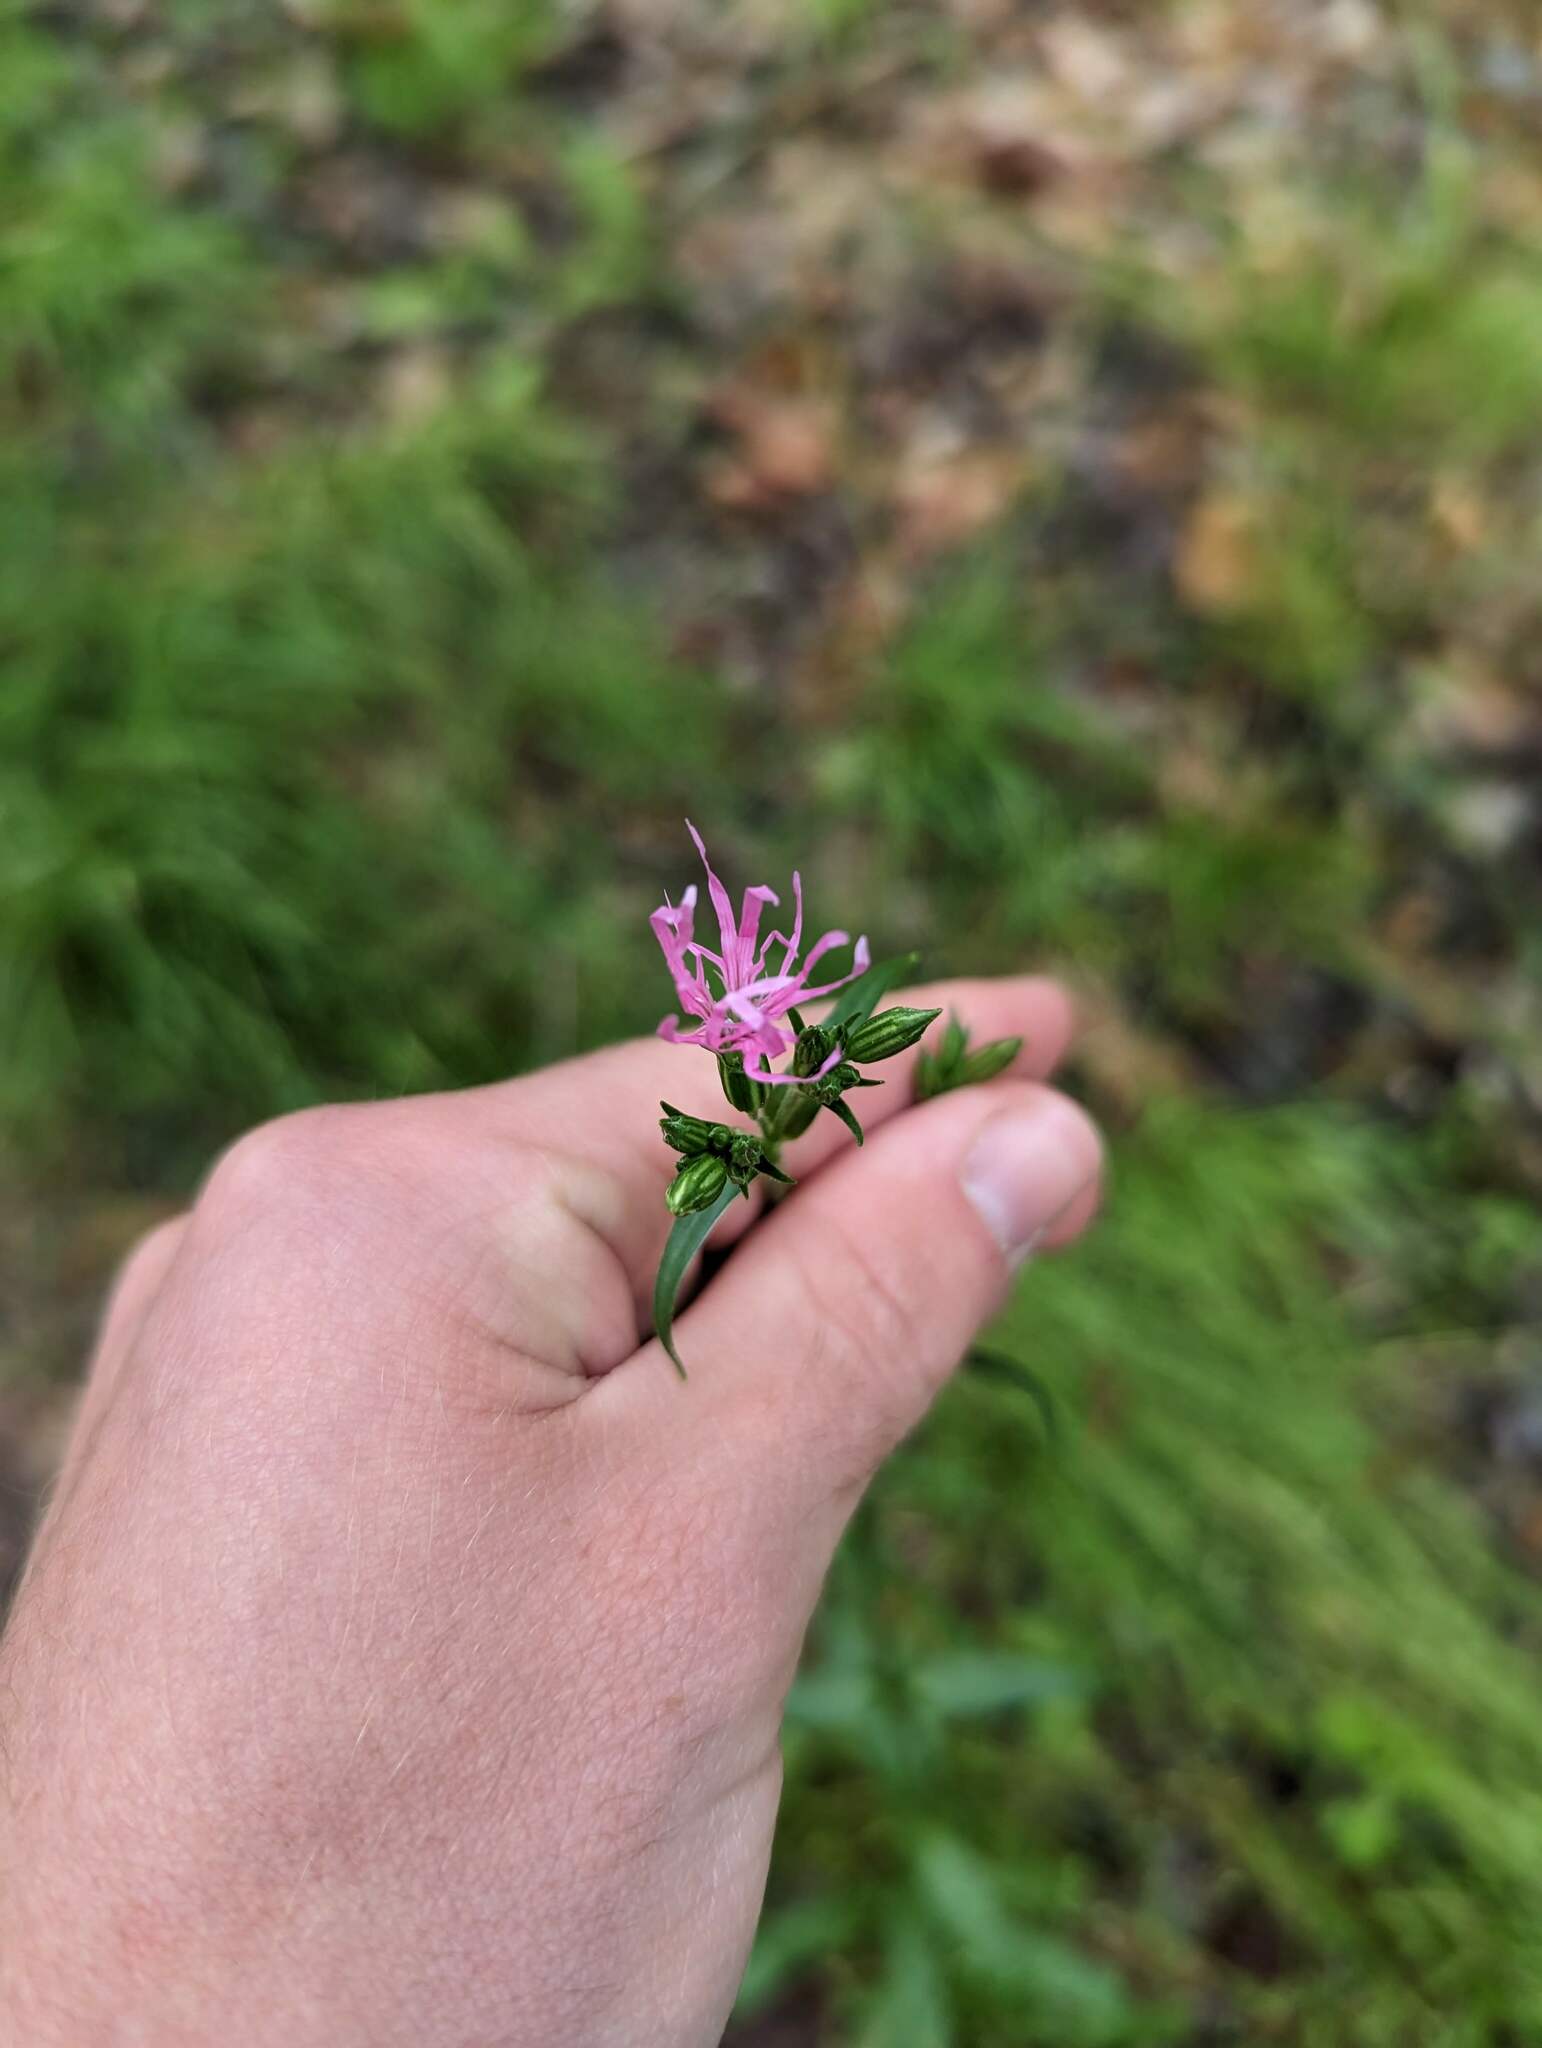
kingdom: Plantae
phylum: Tracheophyta
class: Magnoliopsida
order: Caryophyllales
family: Caryophyllaceae
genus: Silene
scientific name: Silene flos-cuculi
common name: Ragged-robin
